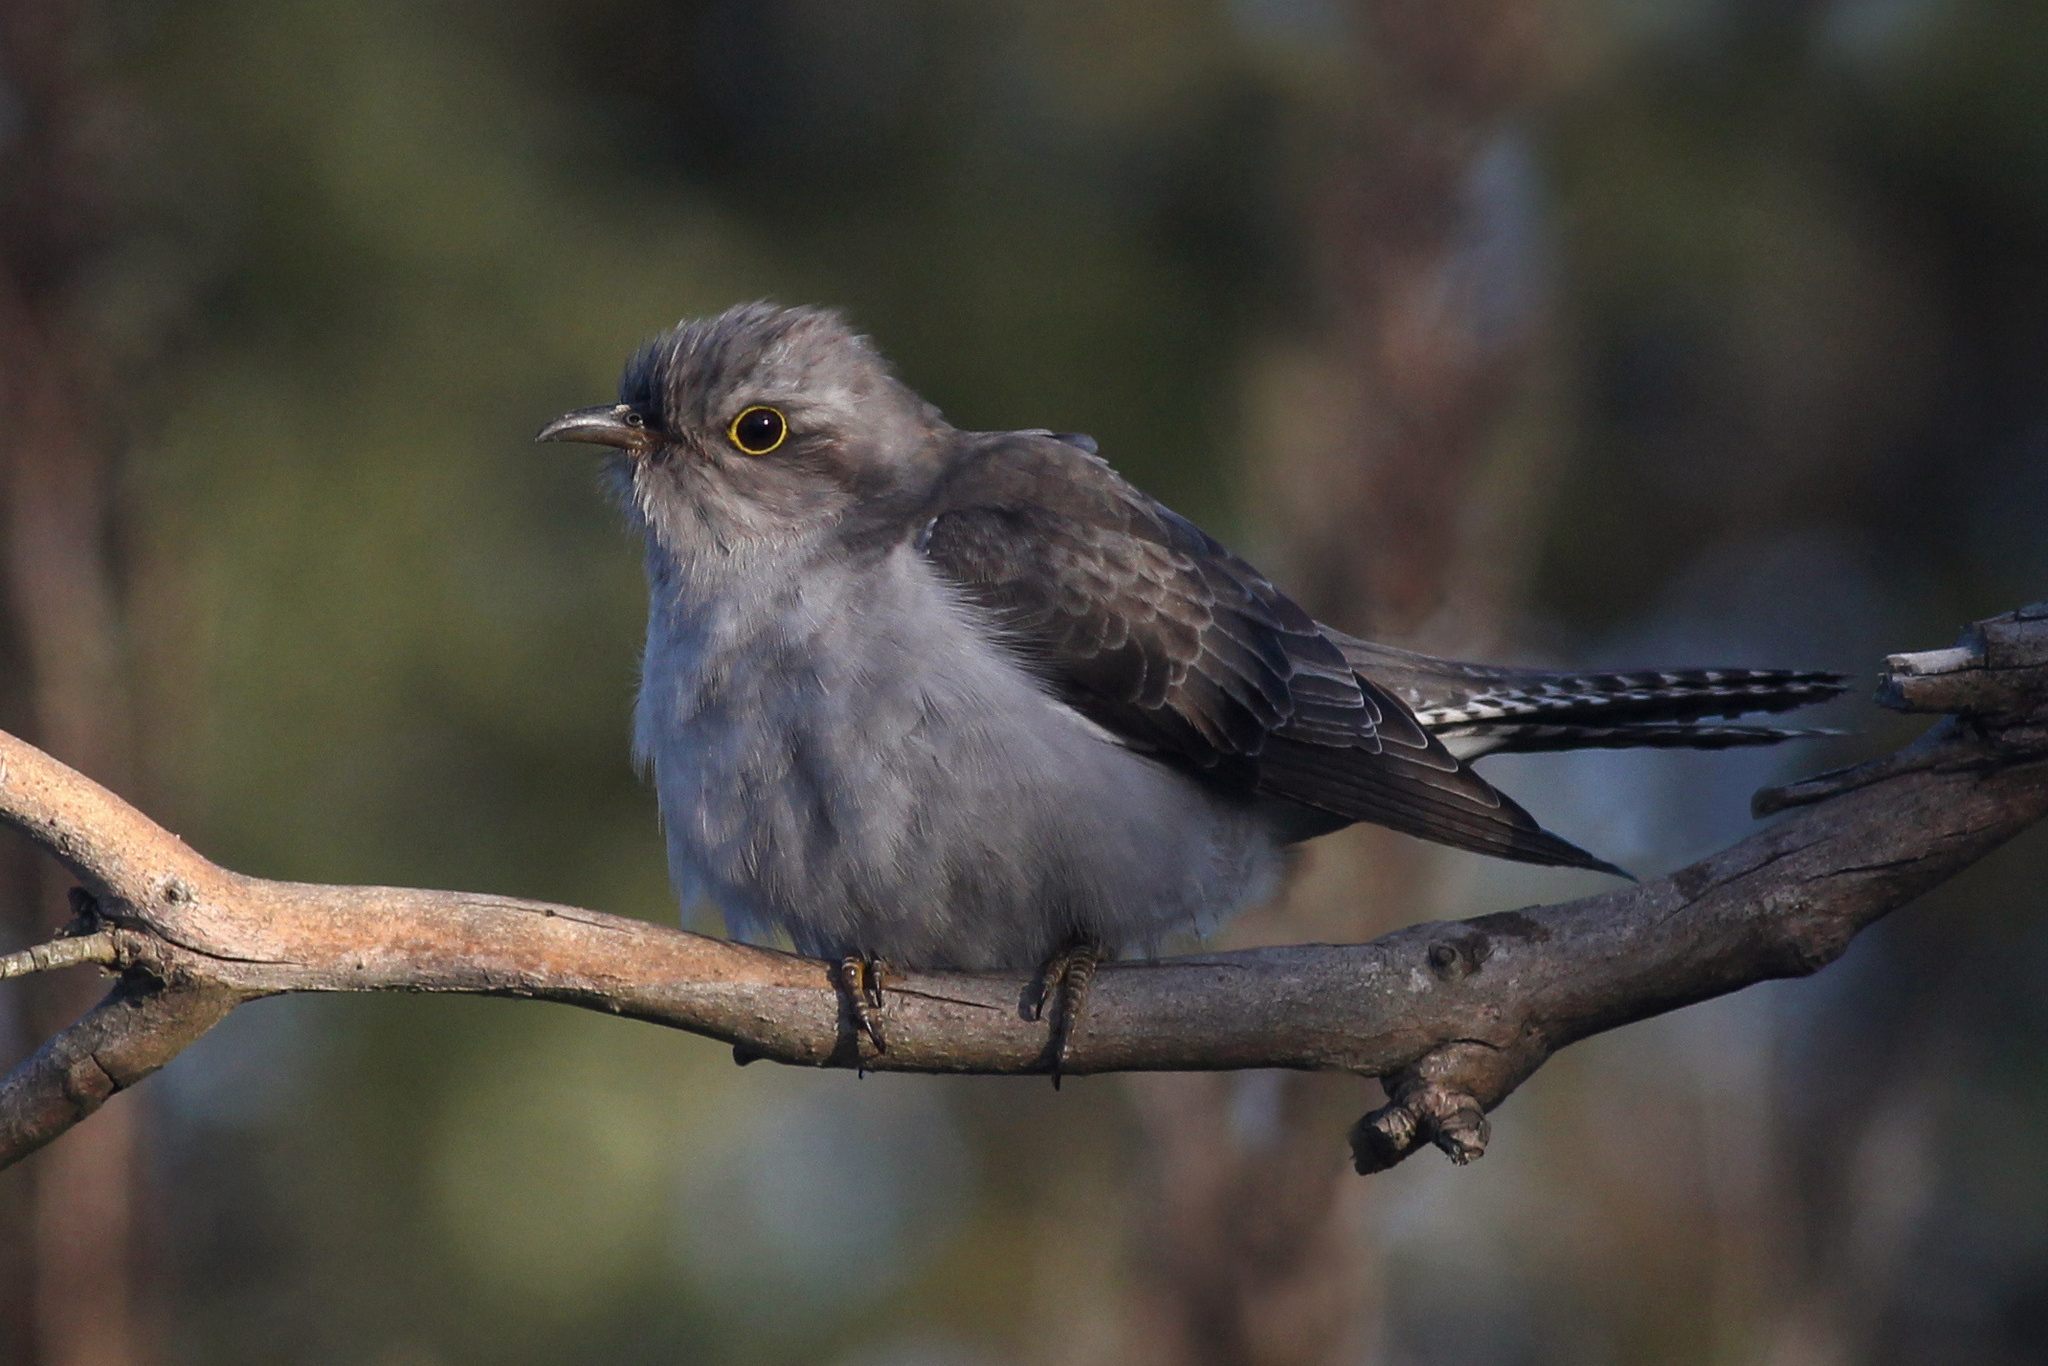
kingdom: Animalia
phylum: Chordata
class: Aves
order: Cuculiformes
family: Cuculidae
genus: Cuculus
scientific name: Cuculus pallidus
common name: Pallid cuckoo
